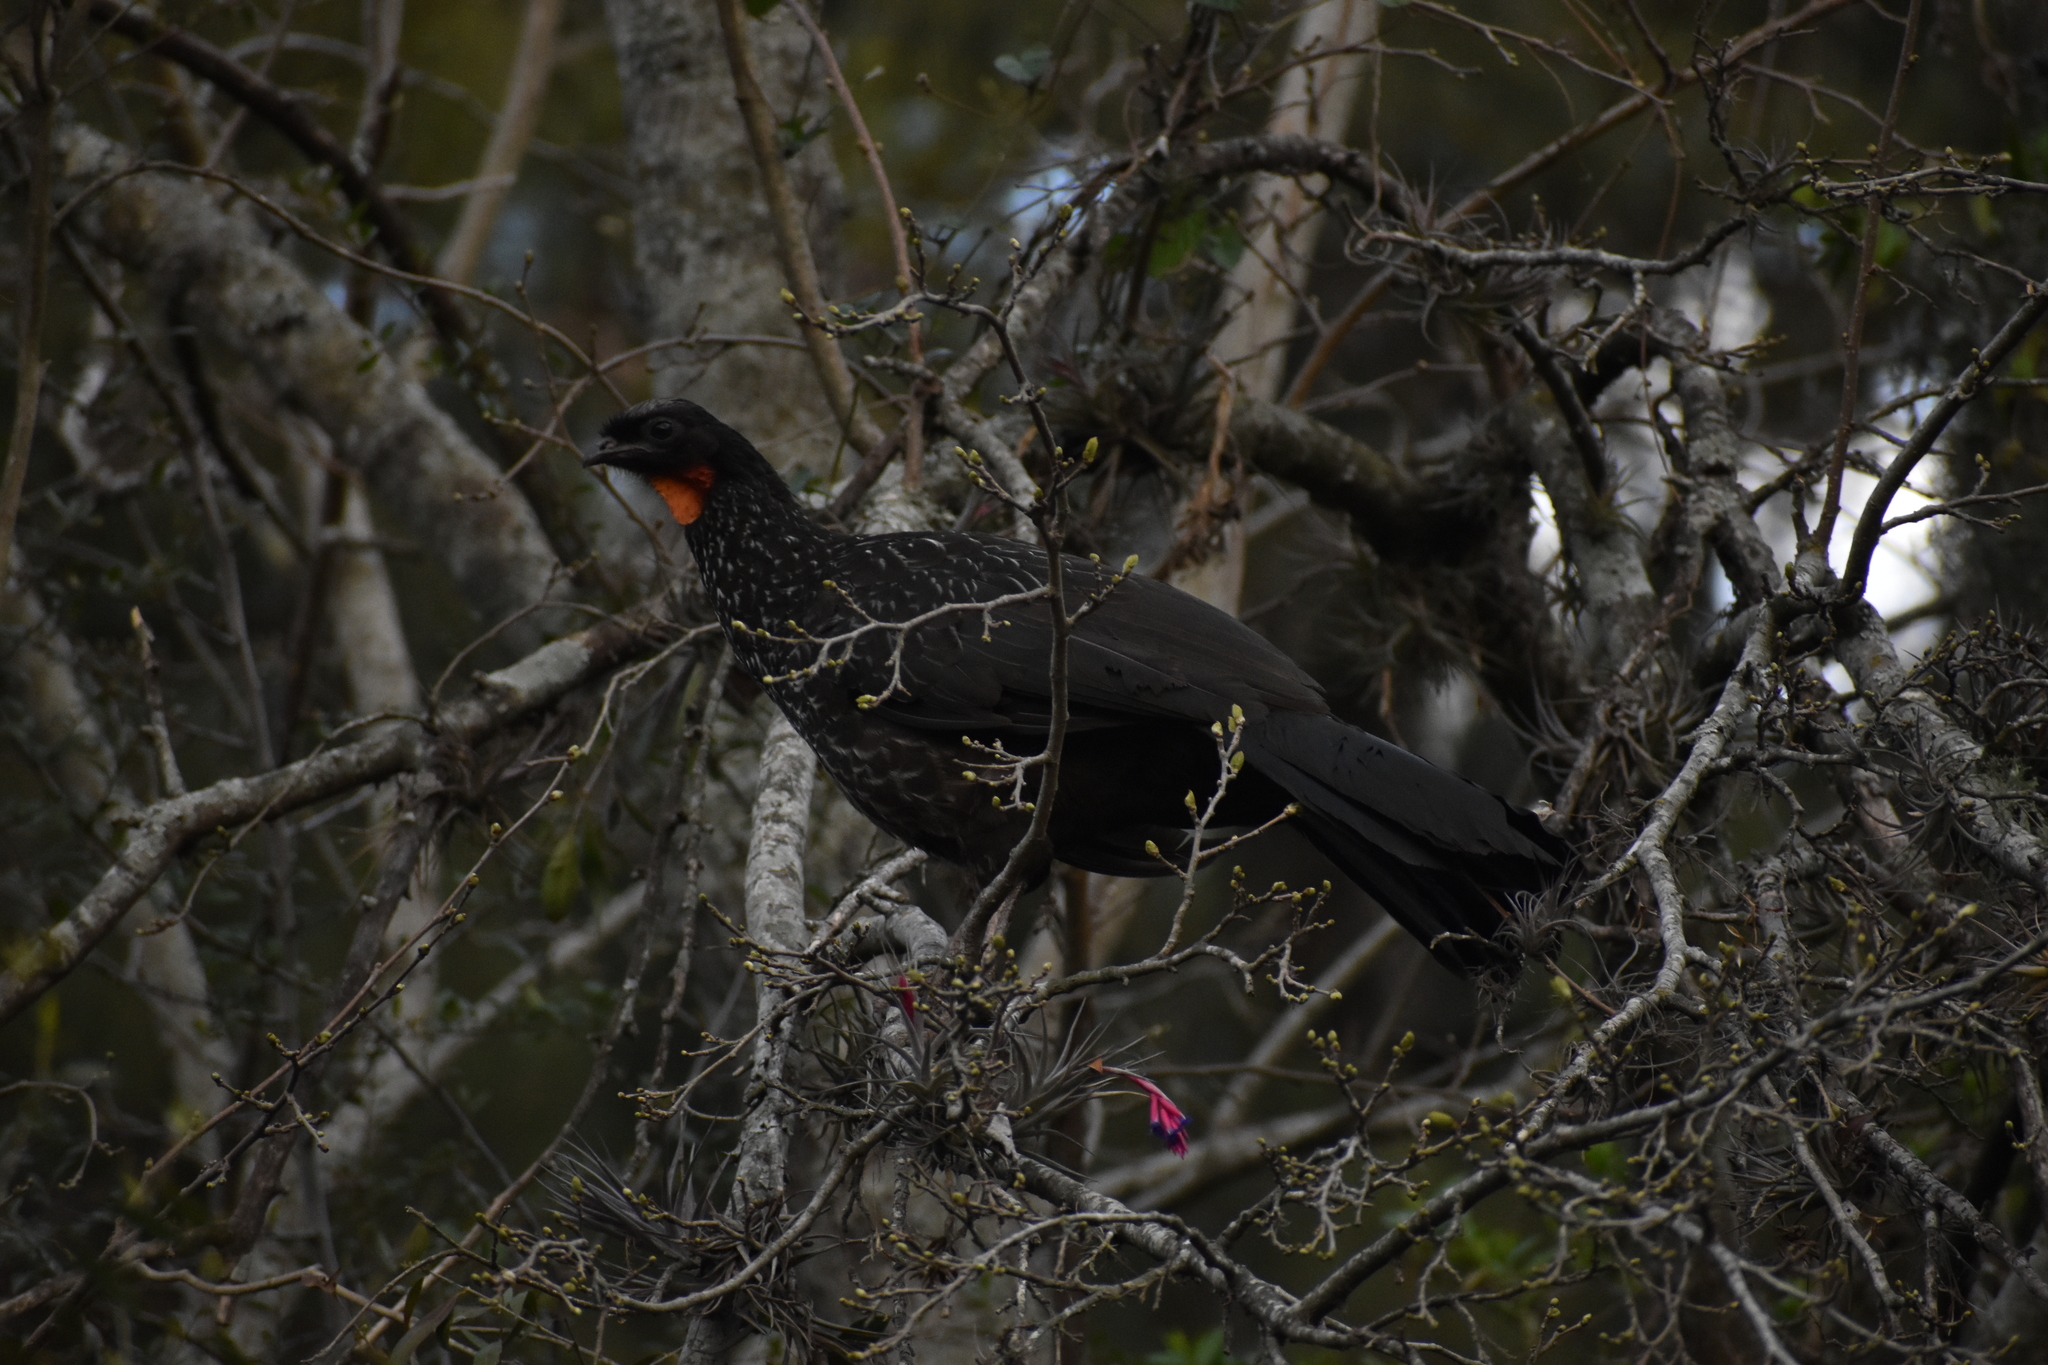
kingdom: Animalia
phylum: Chordata
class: Aves
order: Galliformes
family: Cracidae
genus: Penelope
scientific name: Penelope obscura
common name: Dusky-legged guan
